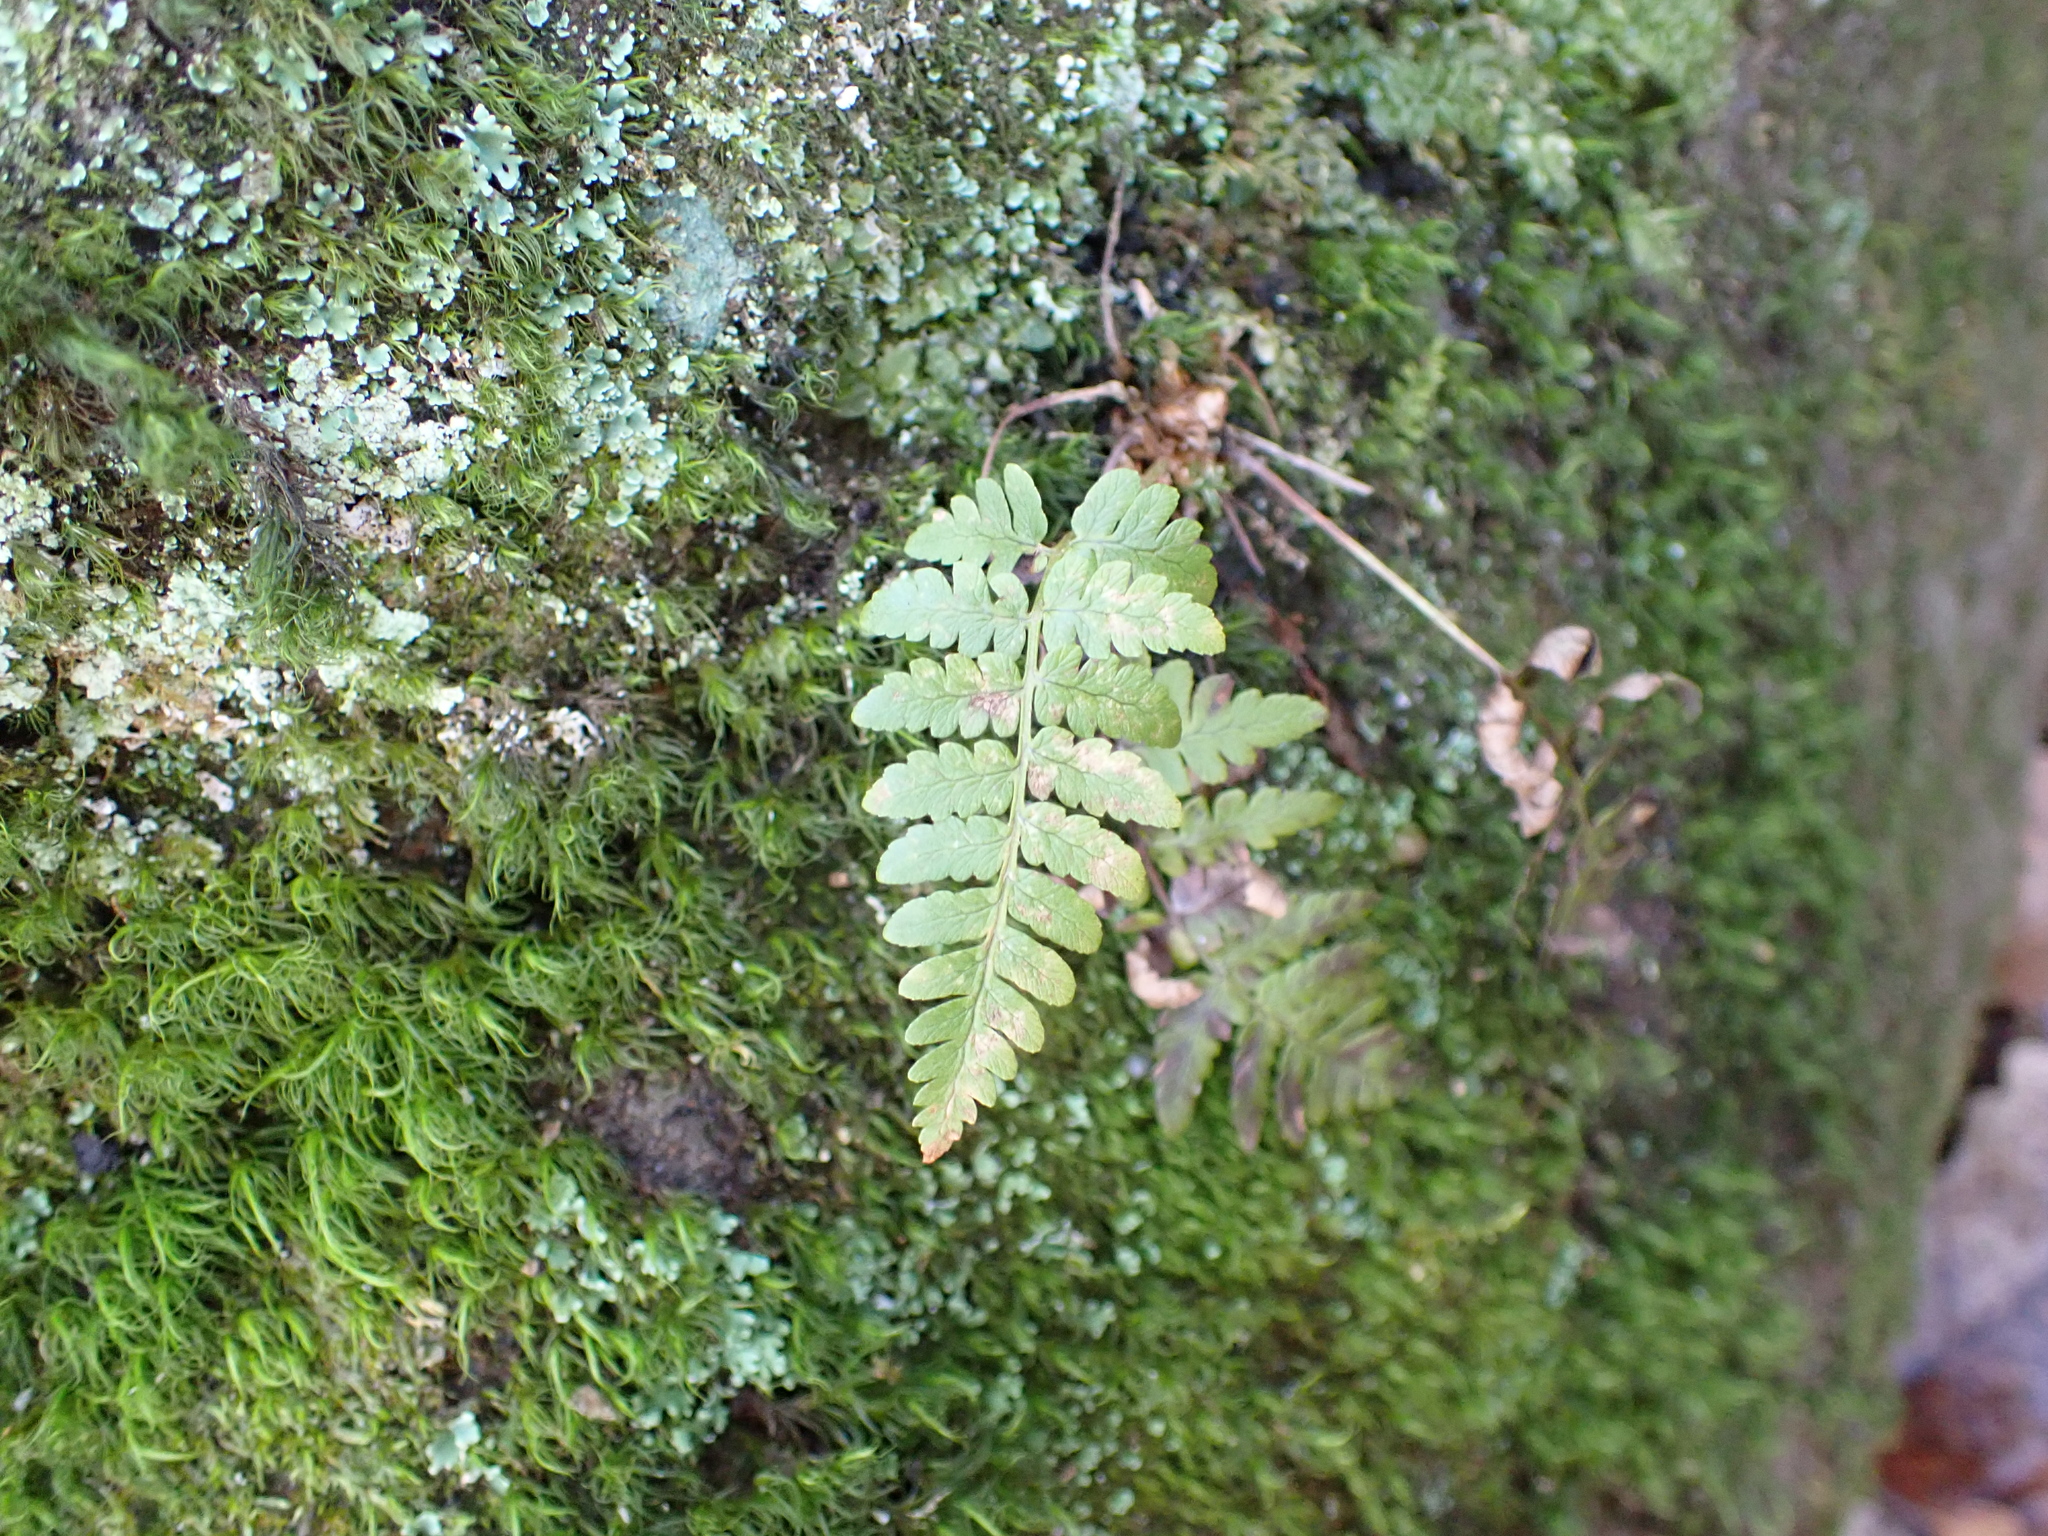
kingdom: Plantae
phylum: Tracheophyta
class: Polypodiopsida
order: Polypodiales
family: Dryopteridaceae
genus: Dryopteris
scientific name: Dryopteris marginalis
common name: Marginal wood fern
